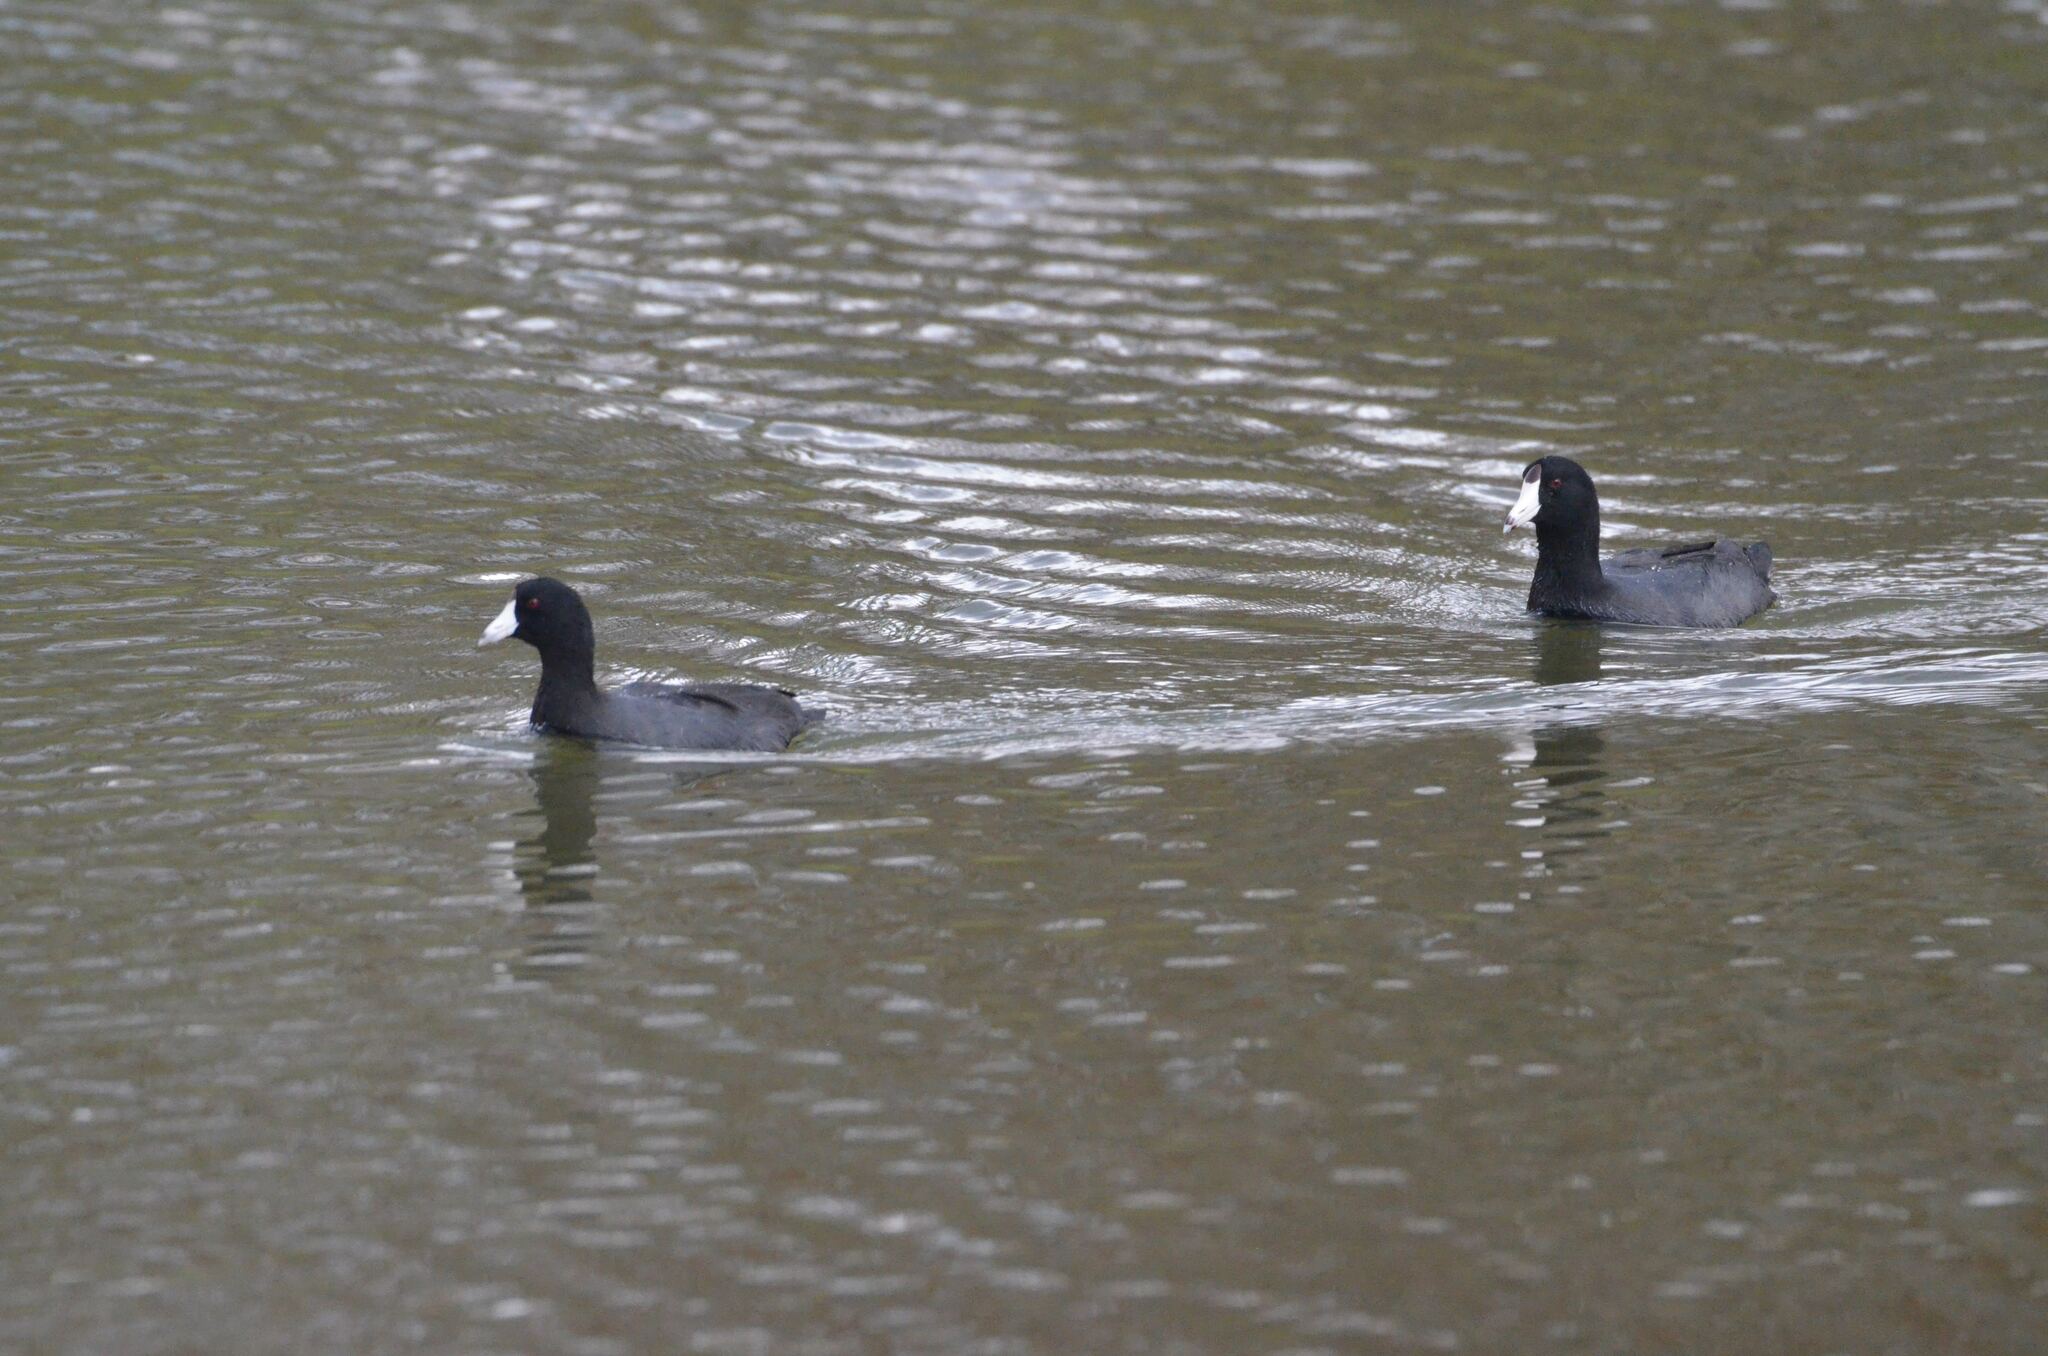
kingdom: Animalia
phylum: Chordata
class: Aves
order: Gruiformes
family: Rallidae
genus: Fulica
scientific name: Fulica americana
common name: American coot
